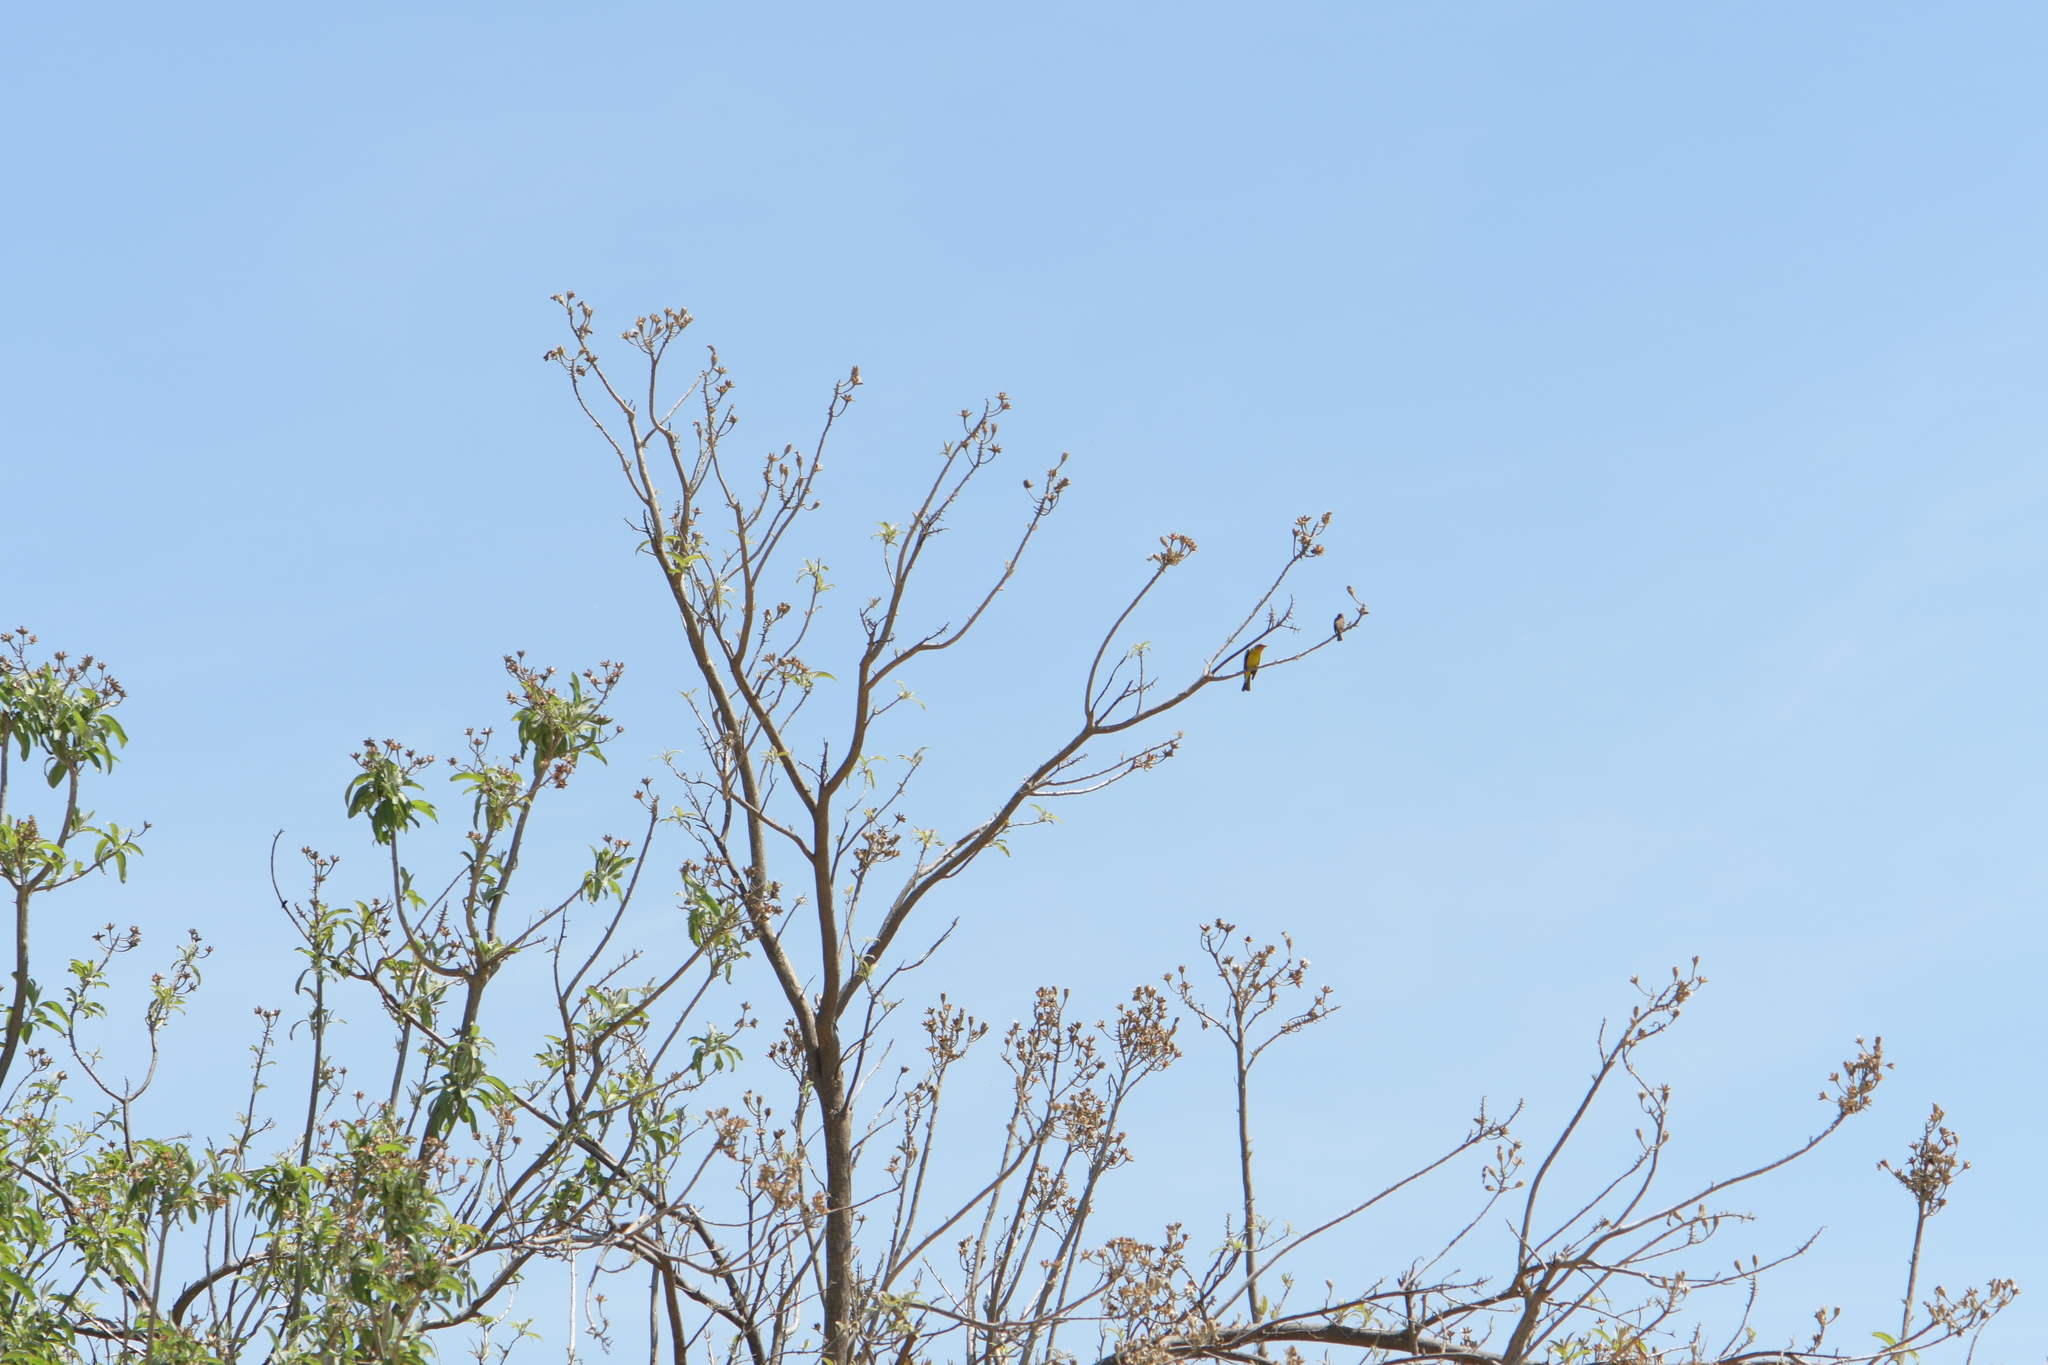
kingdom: Animalia
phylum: Chordata
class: Aves
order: Passeriformes
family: Cardinalidae
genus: Piranga
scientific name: Piranga ludoviciana
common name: Western tanager
